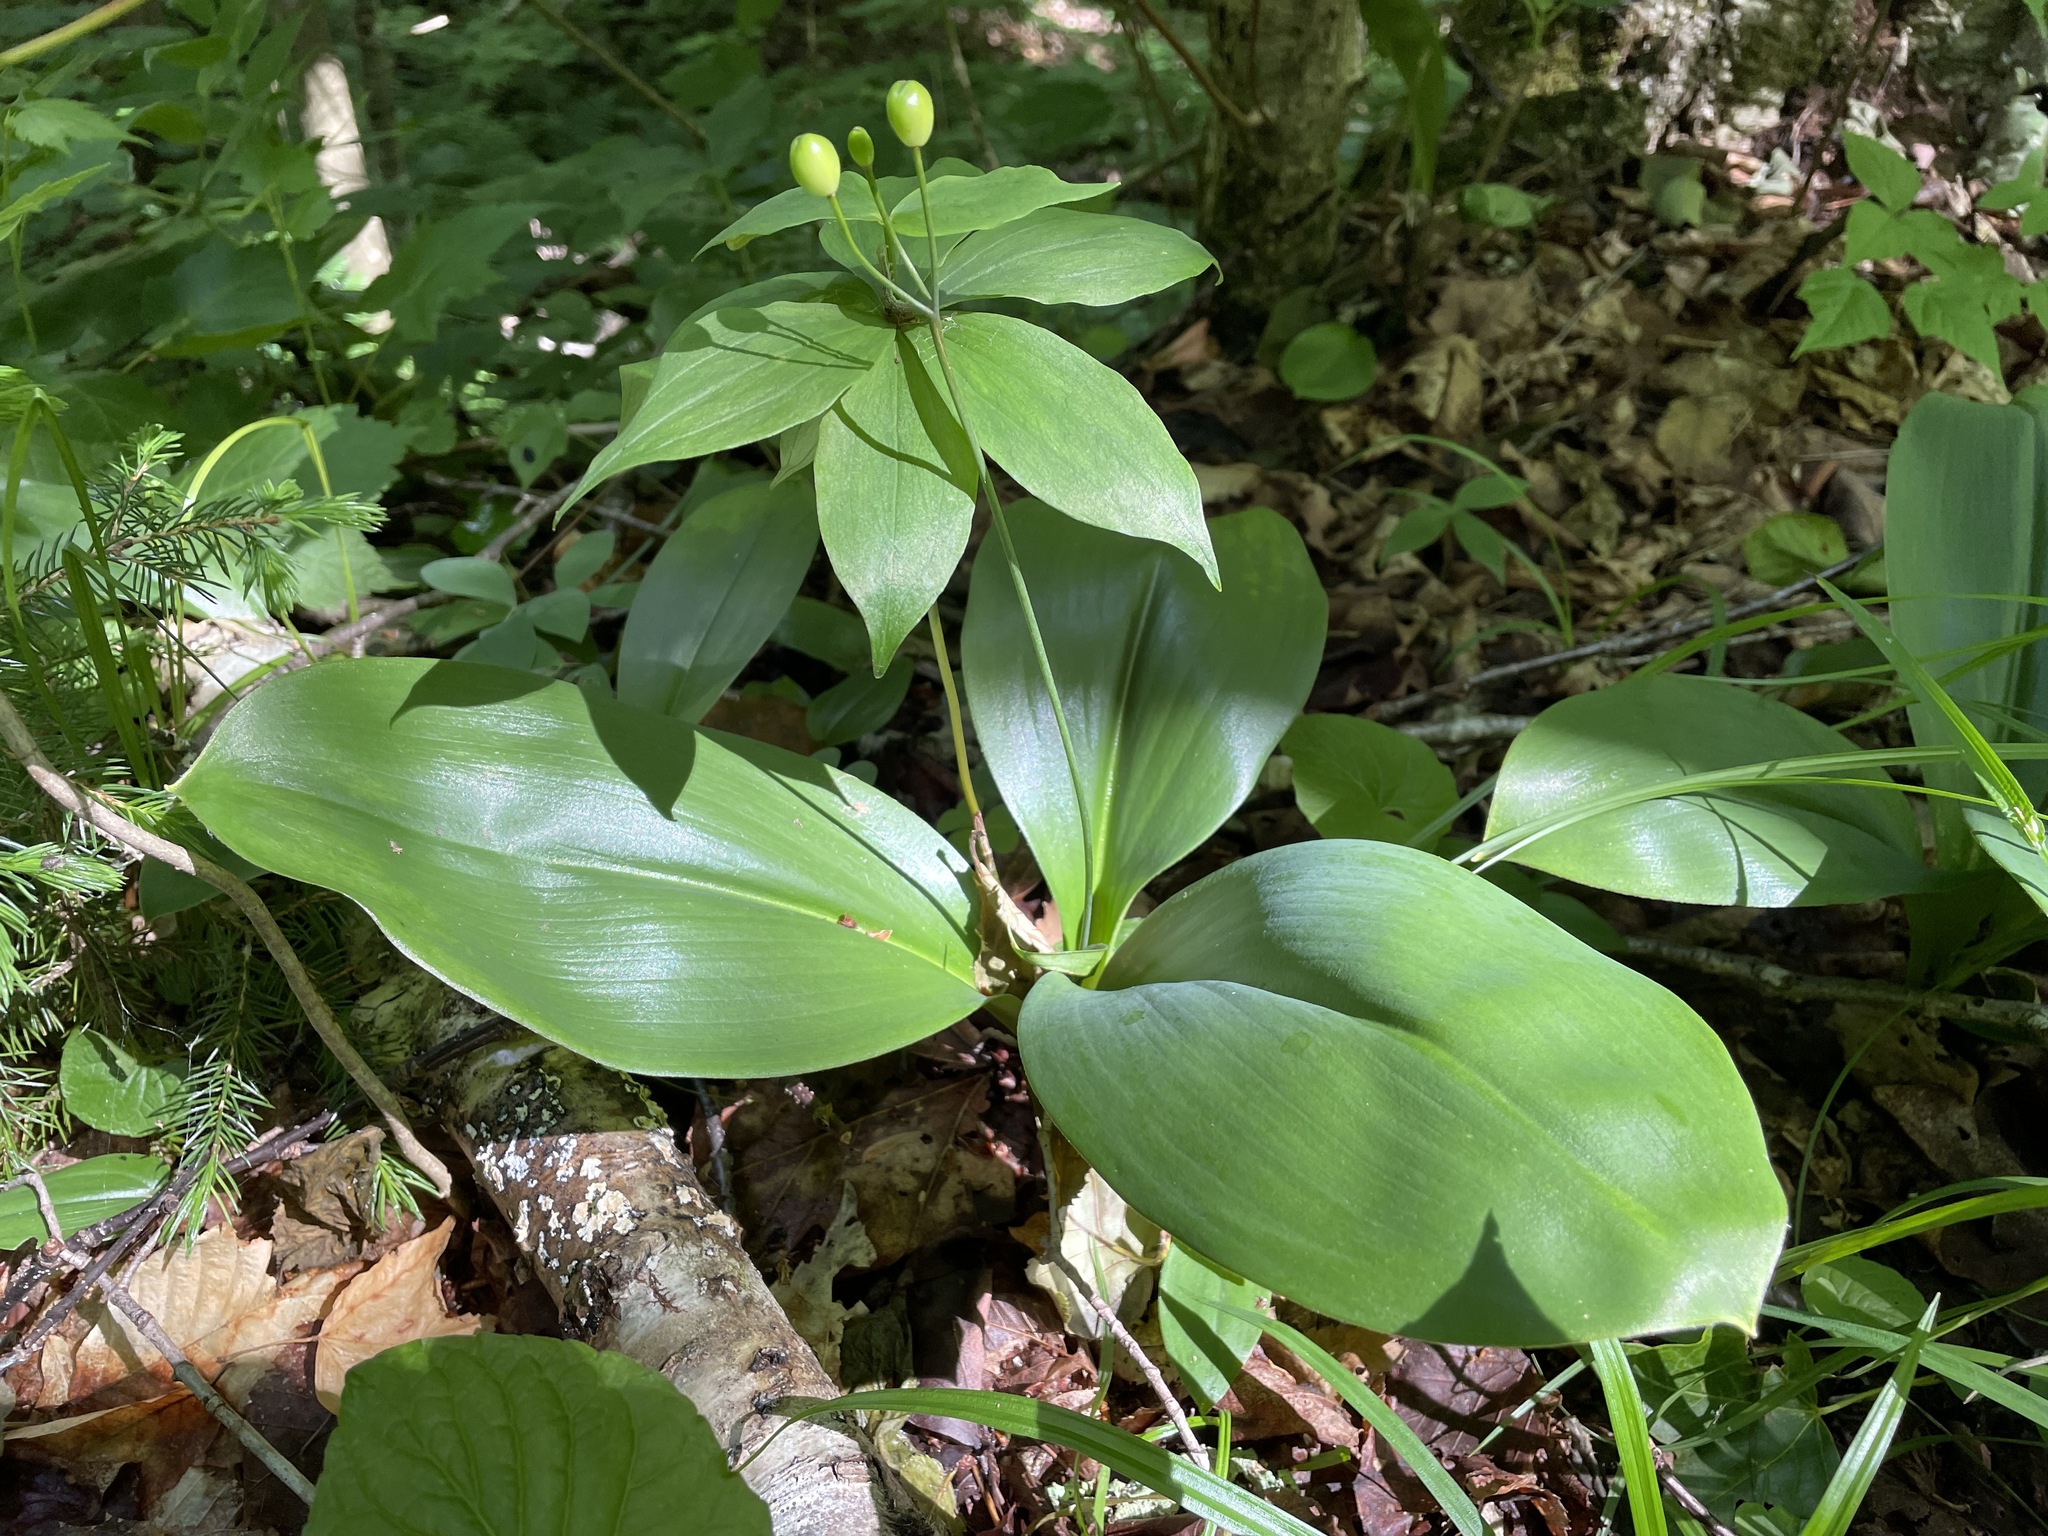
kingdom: Plantae
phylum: Tracheophyta
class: Liliopsida
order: Liliales
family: Liliaceae
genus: Clintonia
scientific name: Clintonia borealis
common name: Yellow clintonia
